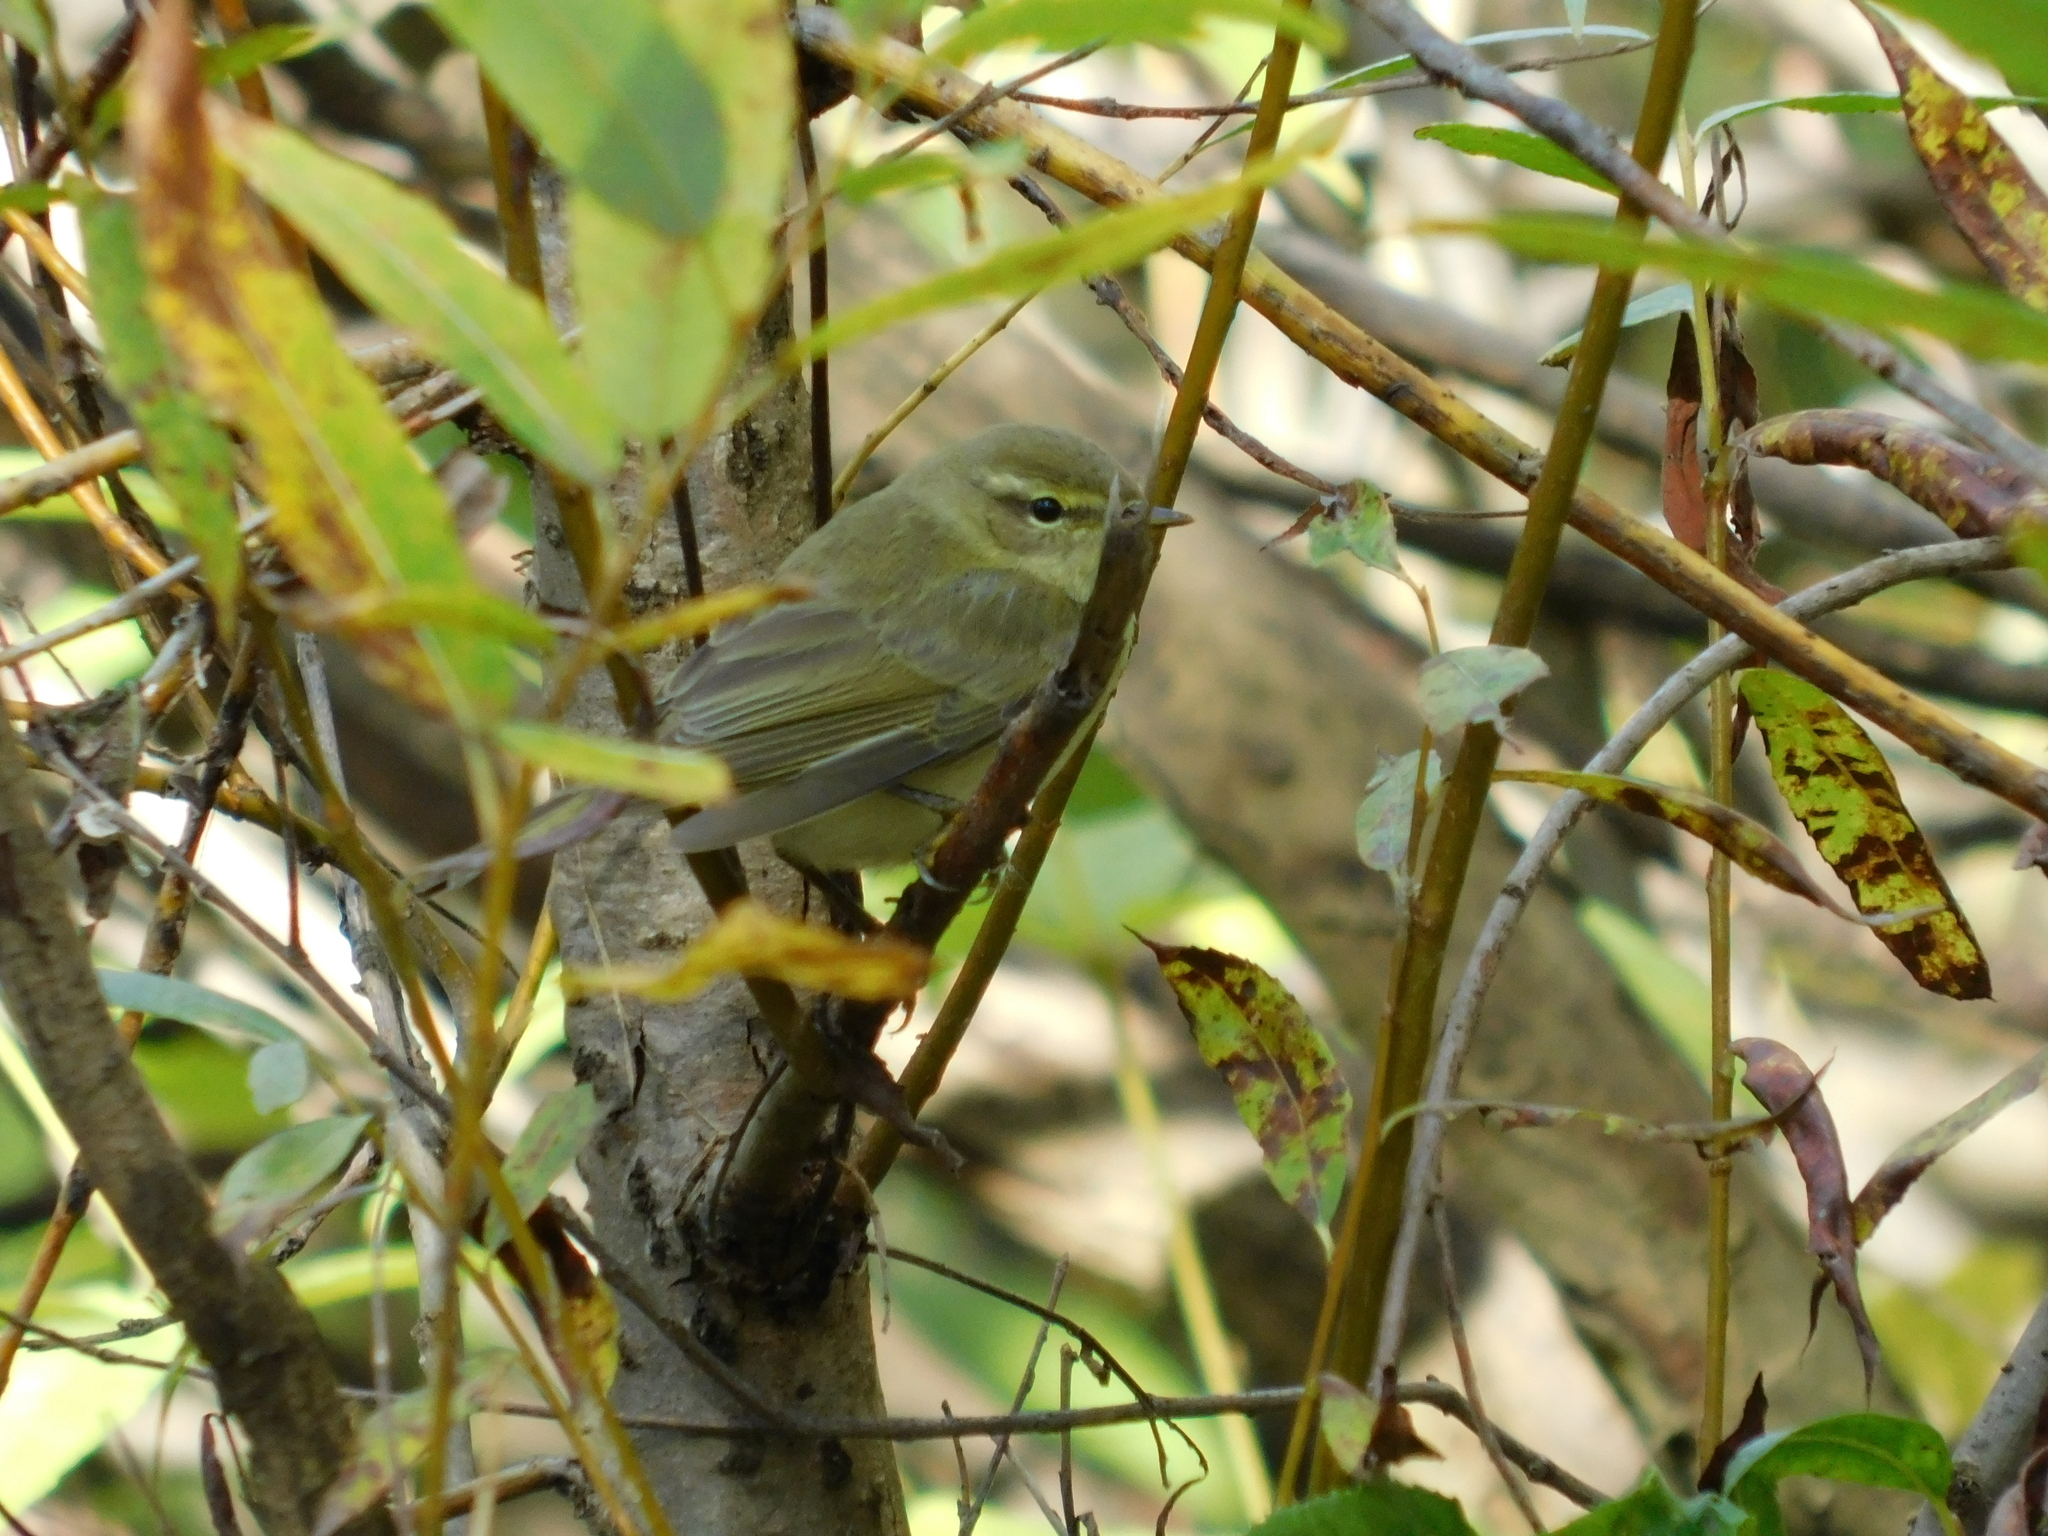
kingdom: Animalia
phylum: Chordata
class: Aves
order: Passeriformes
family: Phylloscopidae
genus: Phylloscopus
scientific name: Phylloscopus collybita
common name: Common chiffchaff
